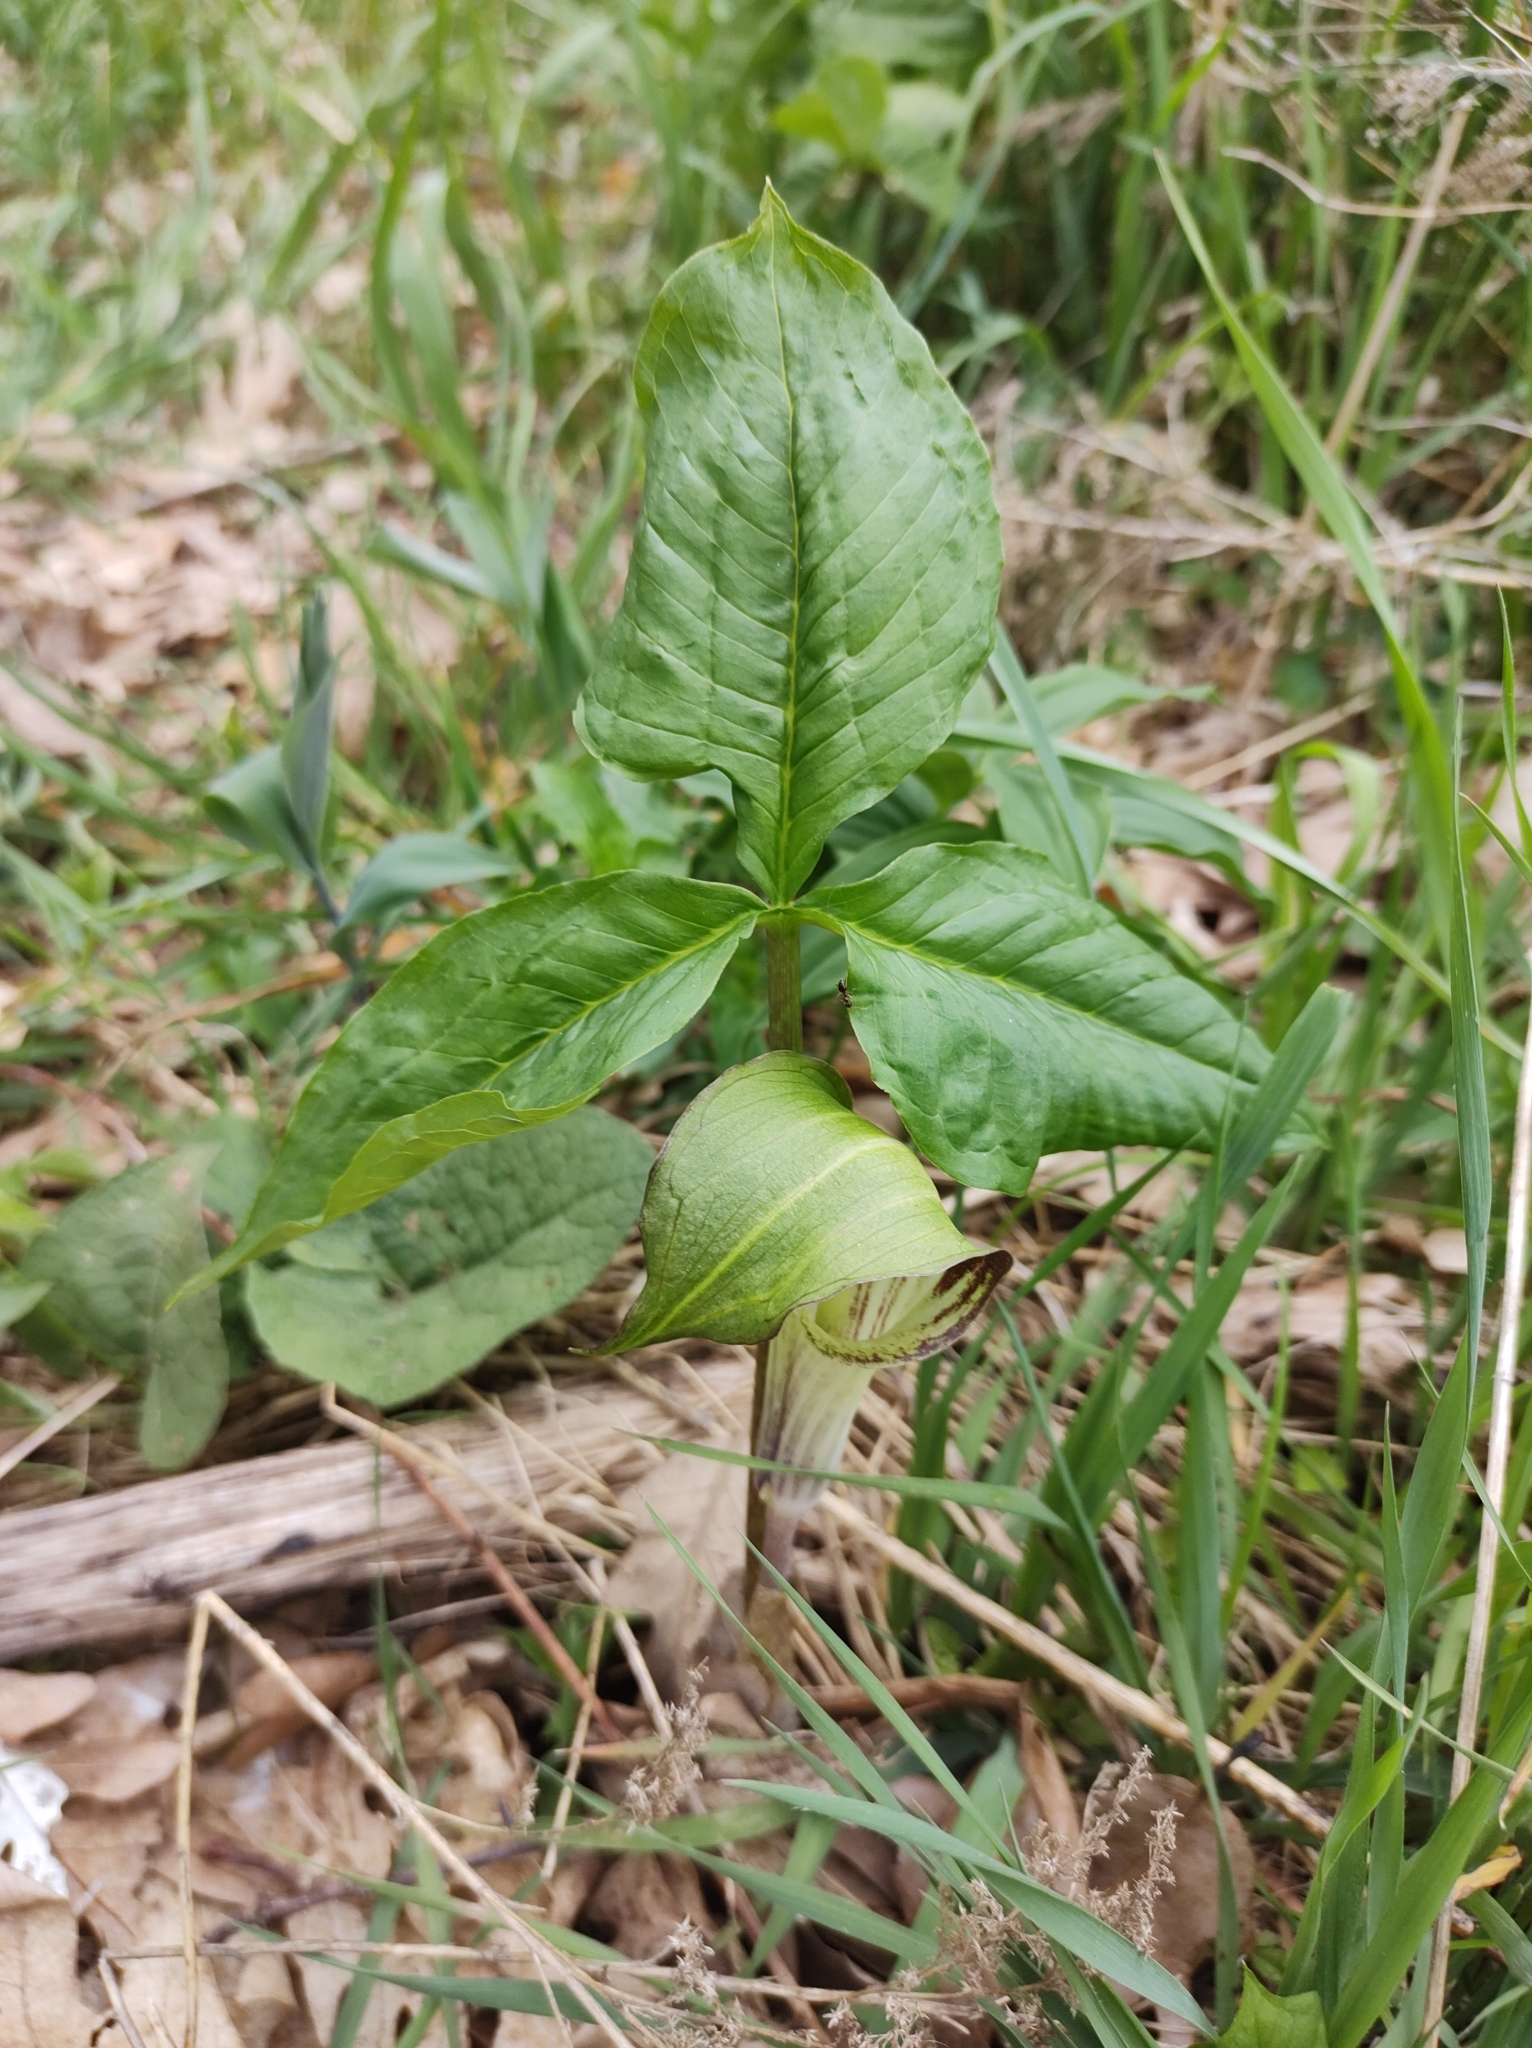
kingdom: Plantae
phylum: Tracheophyta
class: Liliopsida
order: Alismatales
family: Araceae
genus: Arisaema
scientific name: Arisaema triphyllum
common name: Jack-in-the-pulpit
